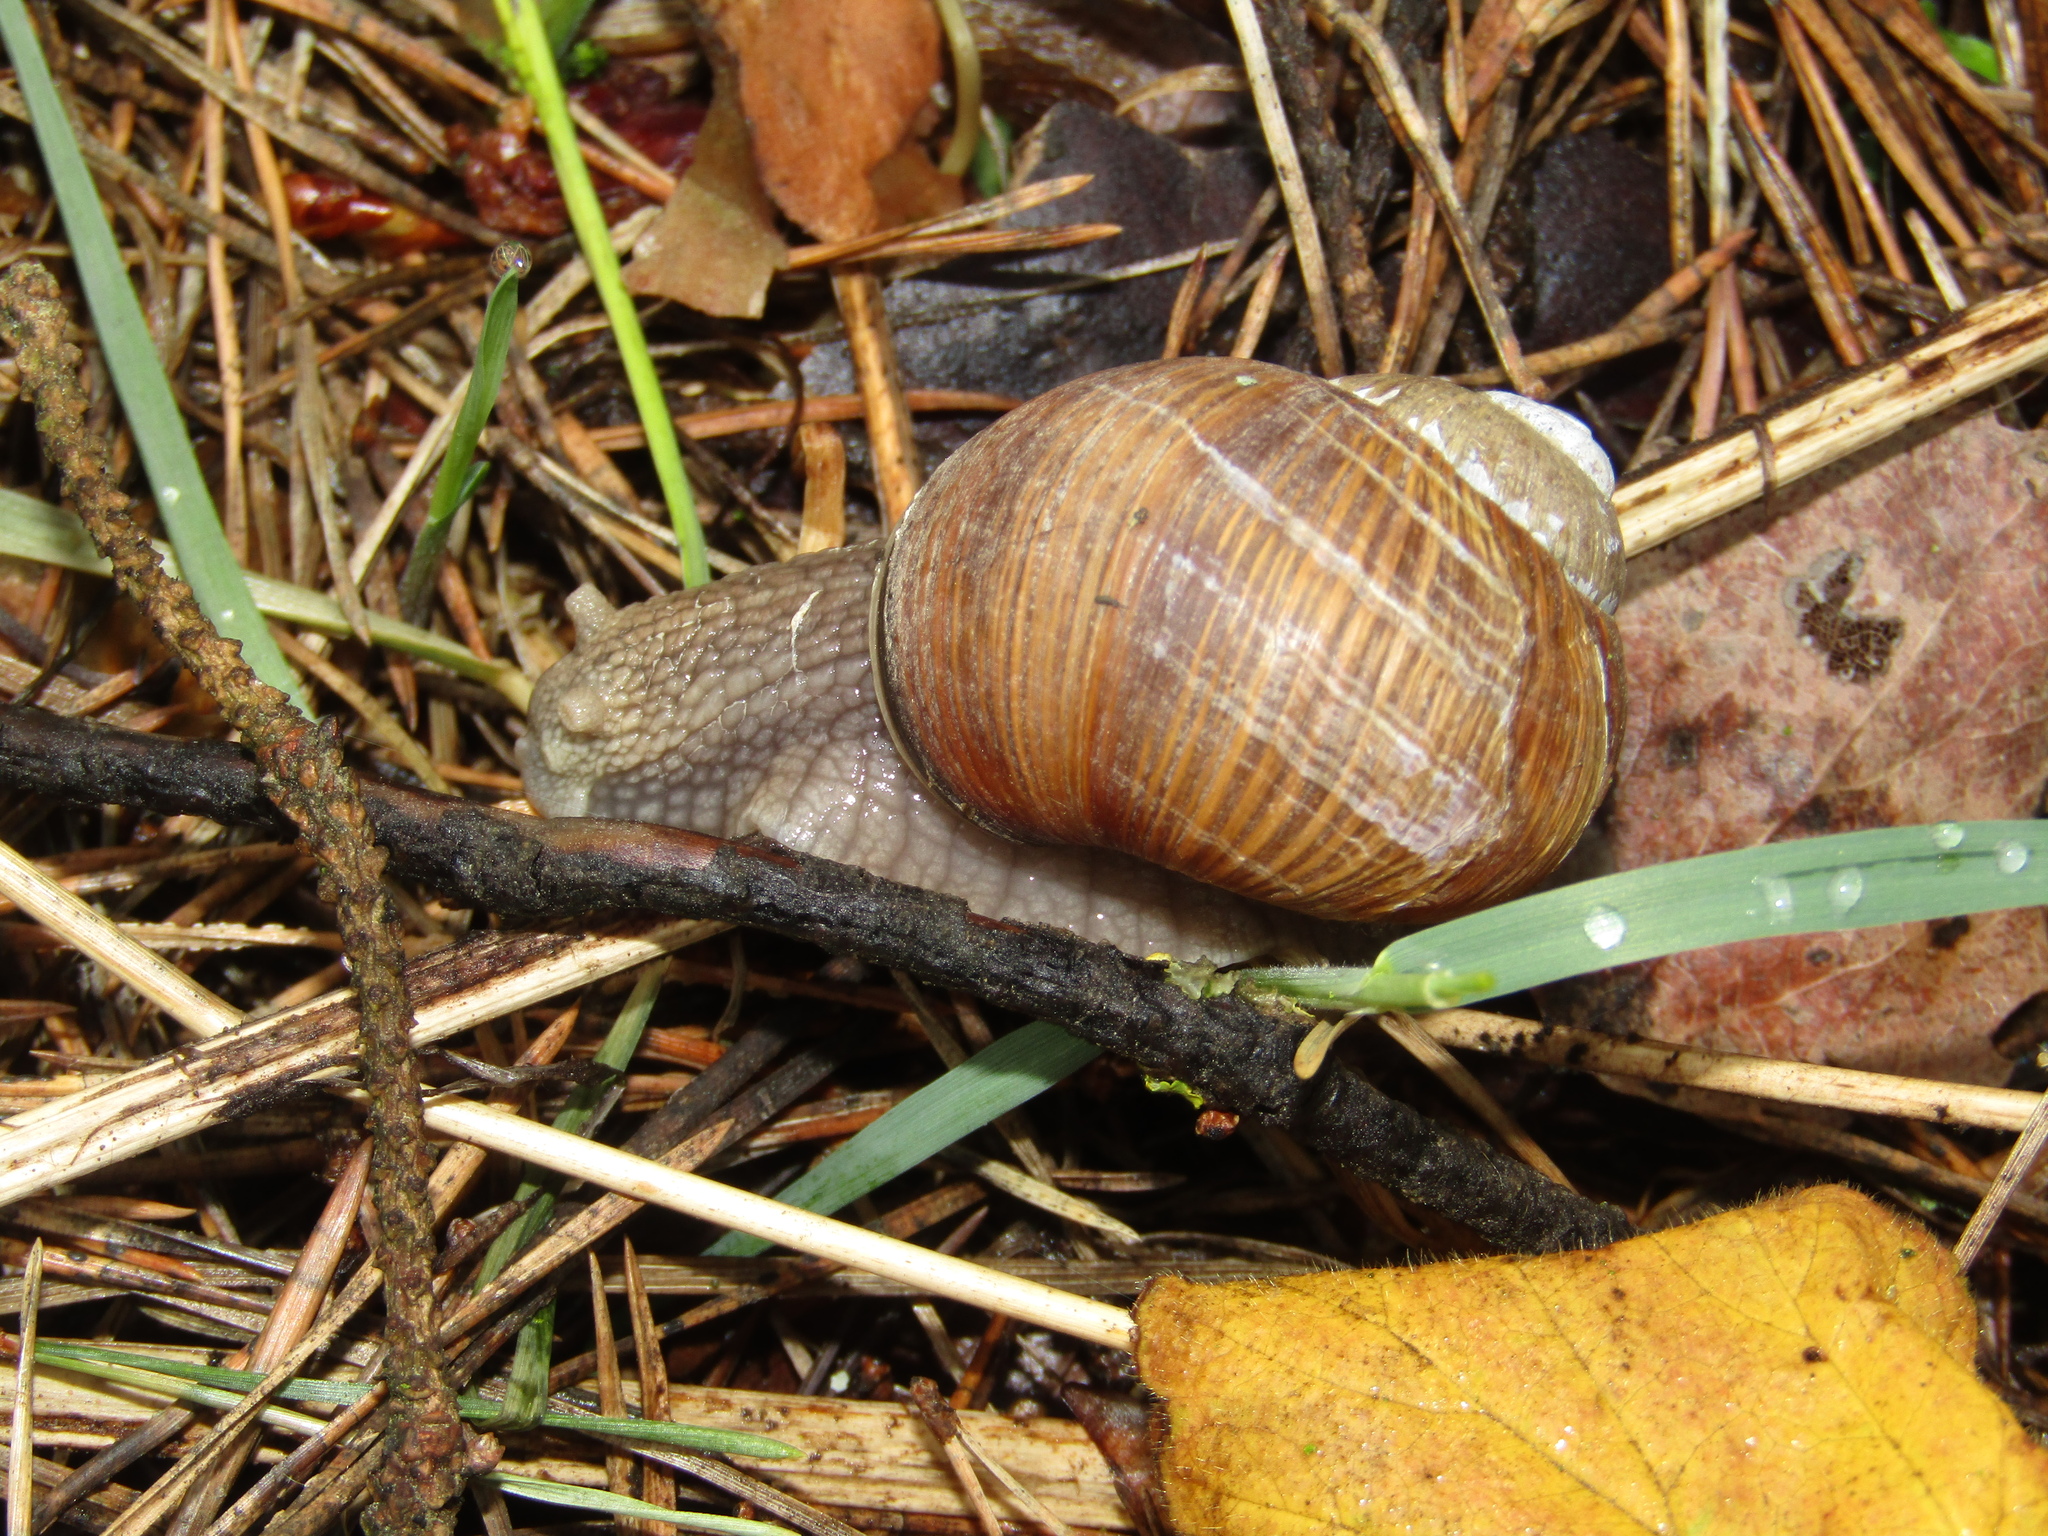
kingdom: Animalia
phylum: Mollusca
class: Gastropoda
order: Stylommatophora
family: Helicidae
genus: Helix
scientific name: Helix pomatia
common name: Roman snail
